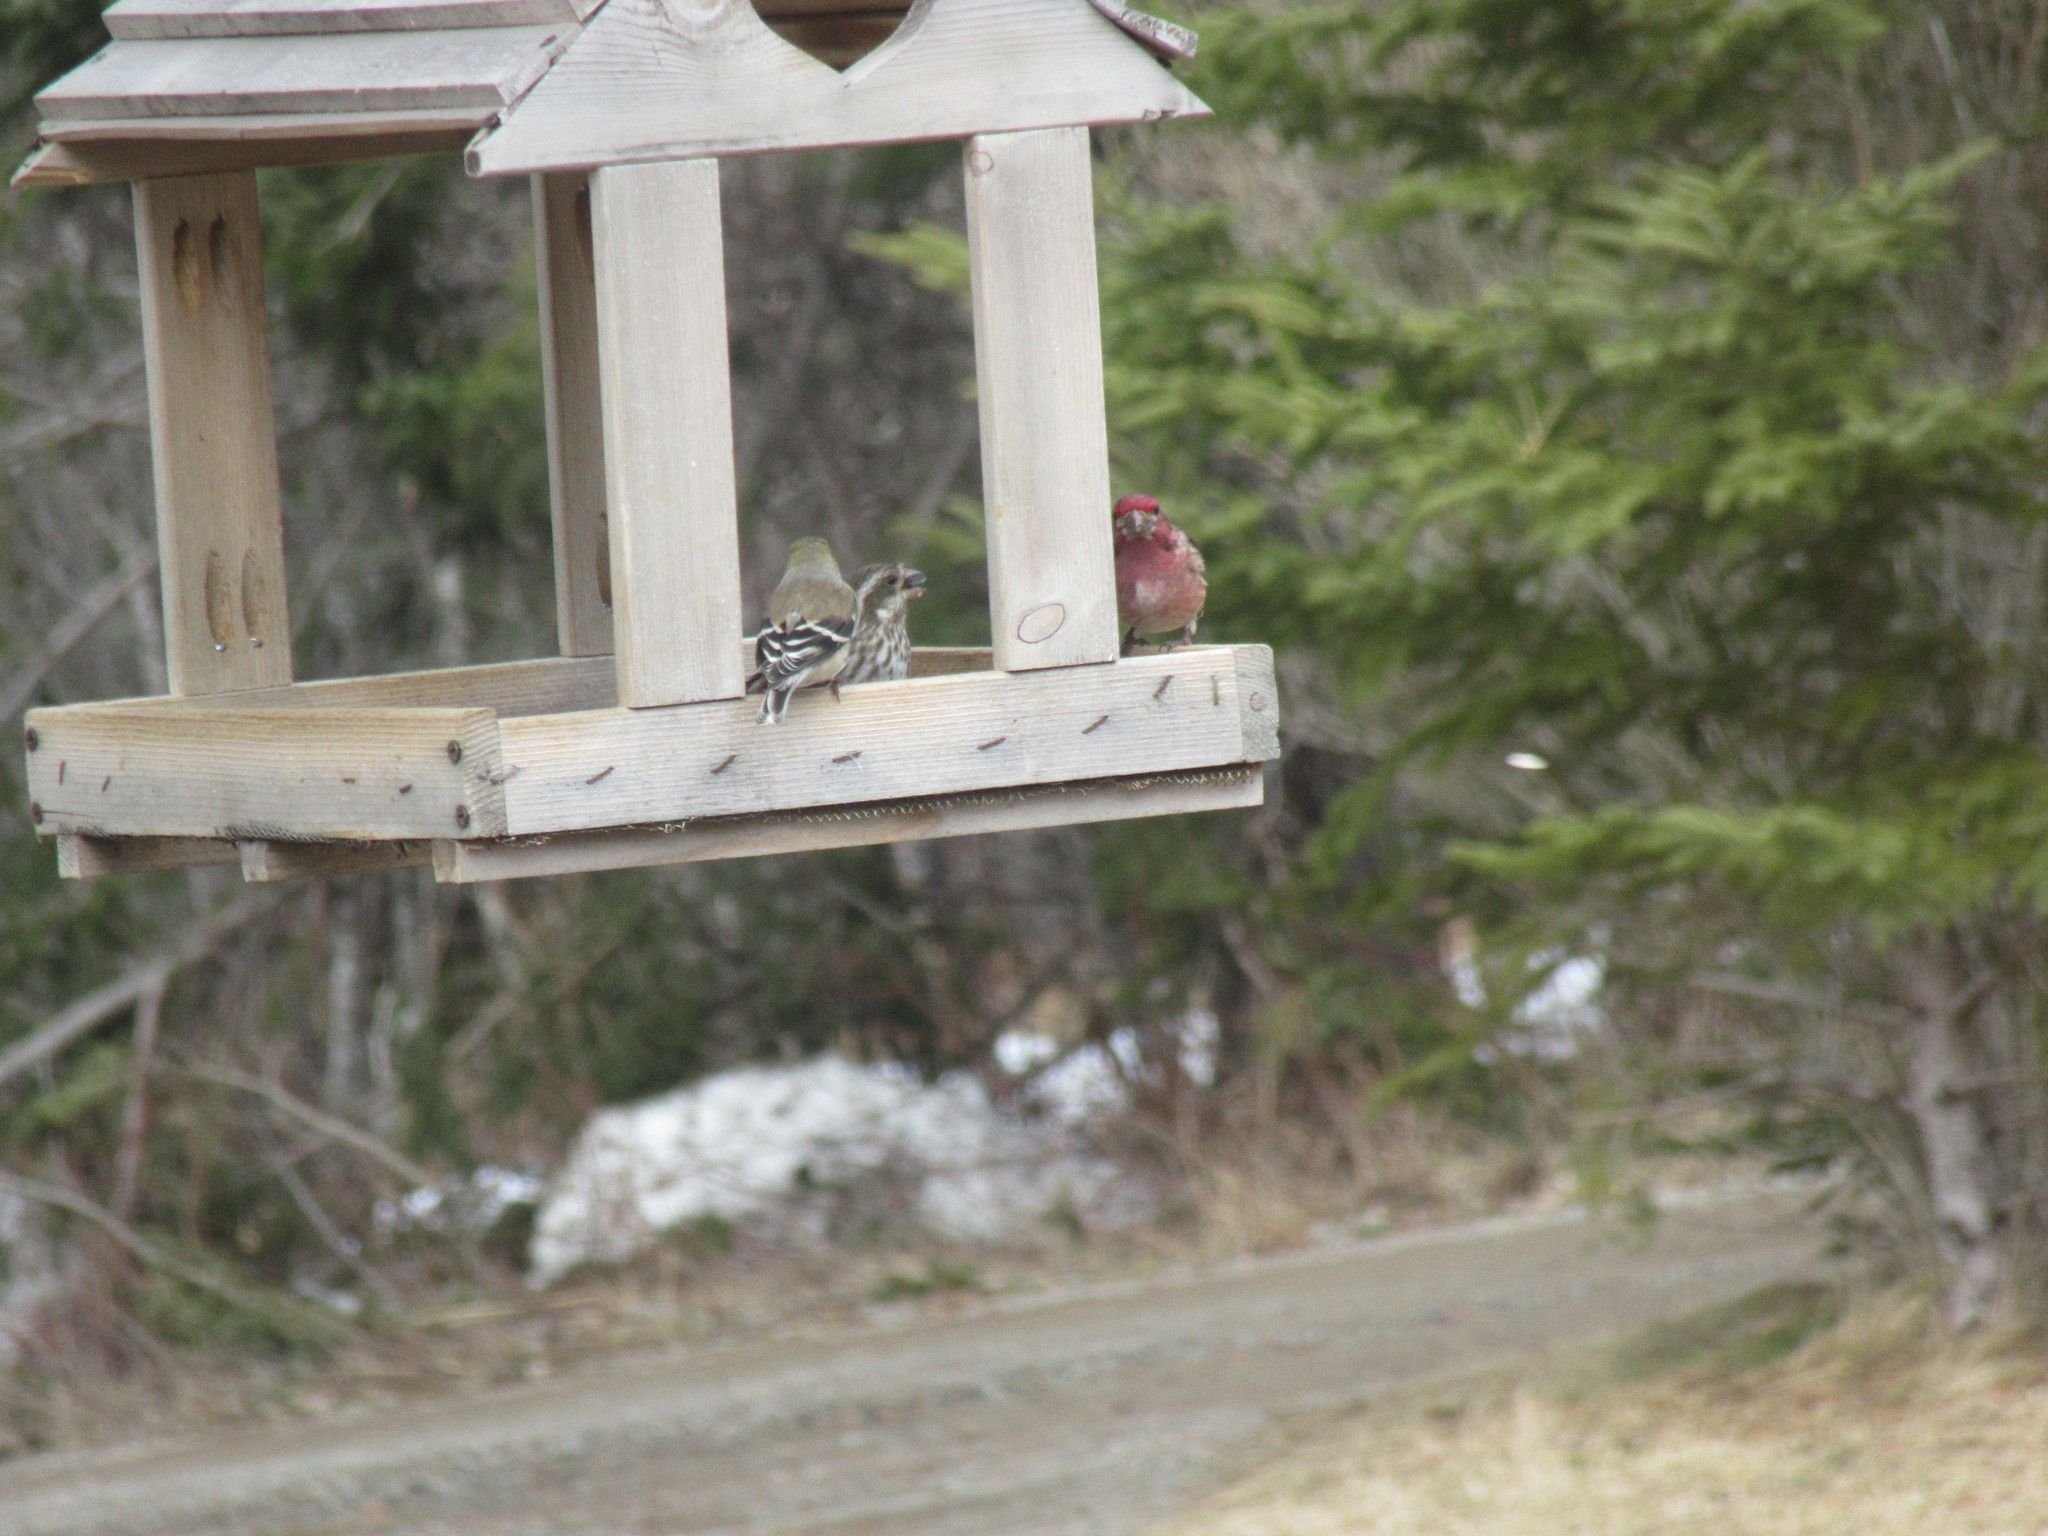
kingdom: Animalia
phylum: Chordata
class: Aves
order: Passeriformes
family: Fringillidae
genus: Spinus
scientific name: Spinus tristis
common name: American goldfinch
